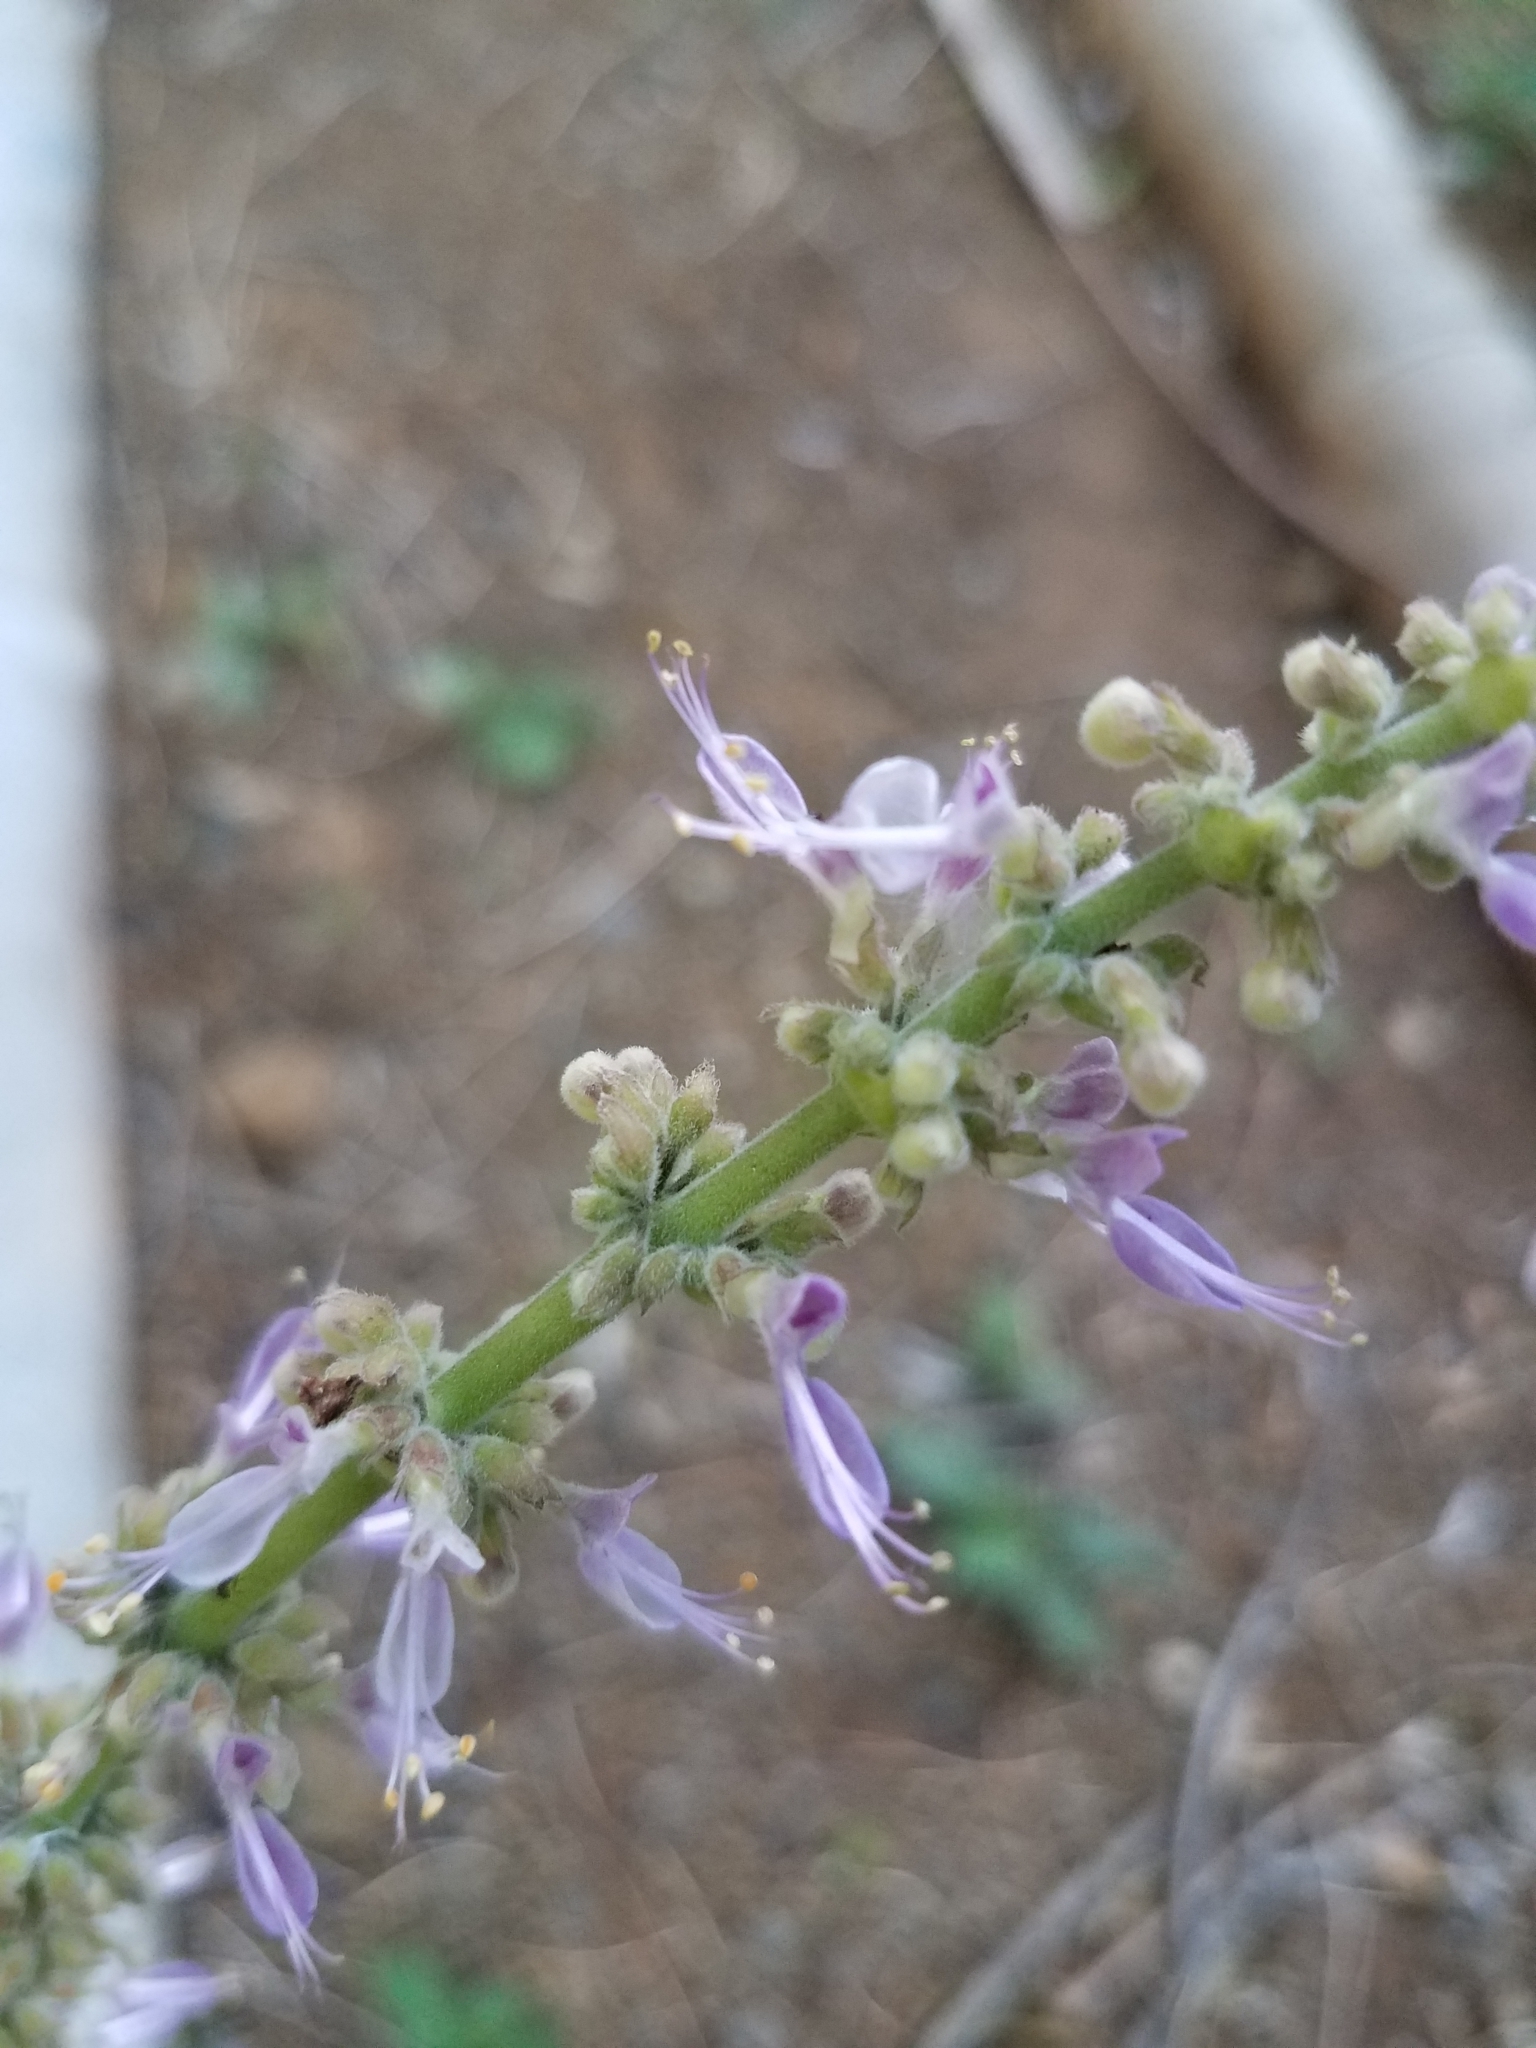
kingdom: Plantae
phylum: Tracheophyta
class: Magnoliopsida
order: Lamiales
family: Lamiaceae
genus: Coleus
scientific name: Coleus amboinicus
